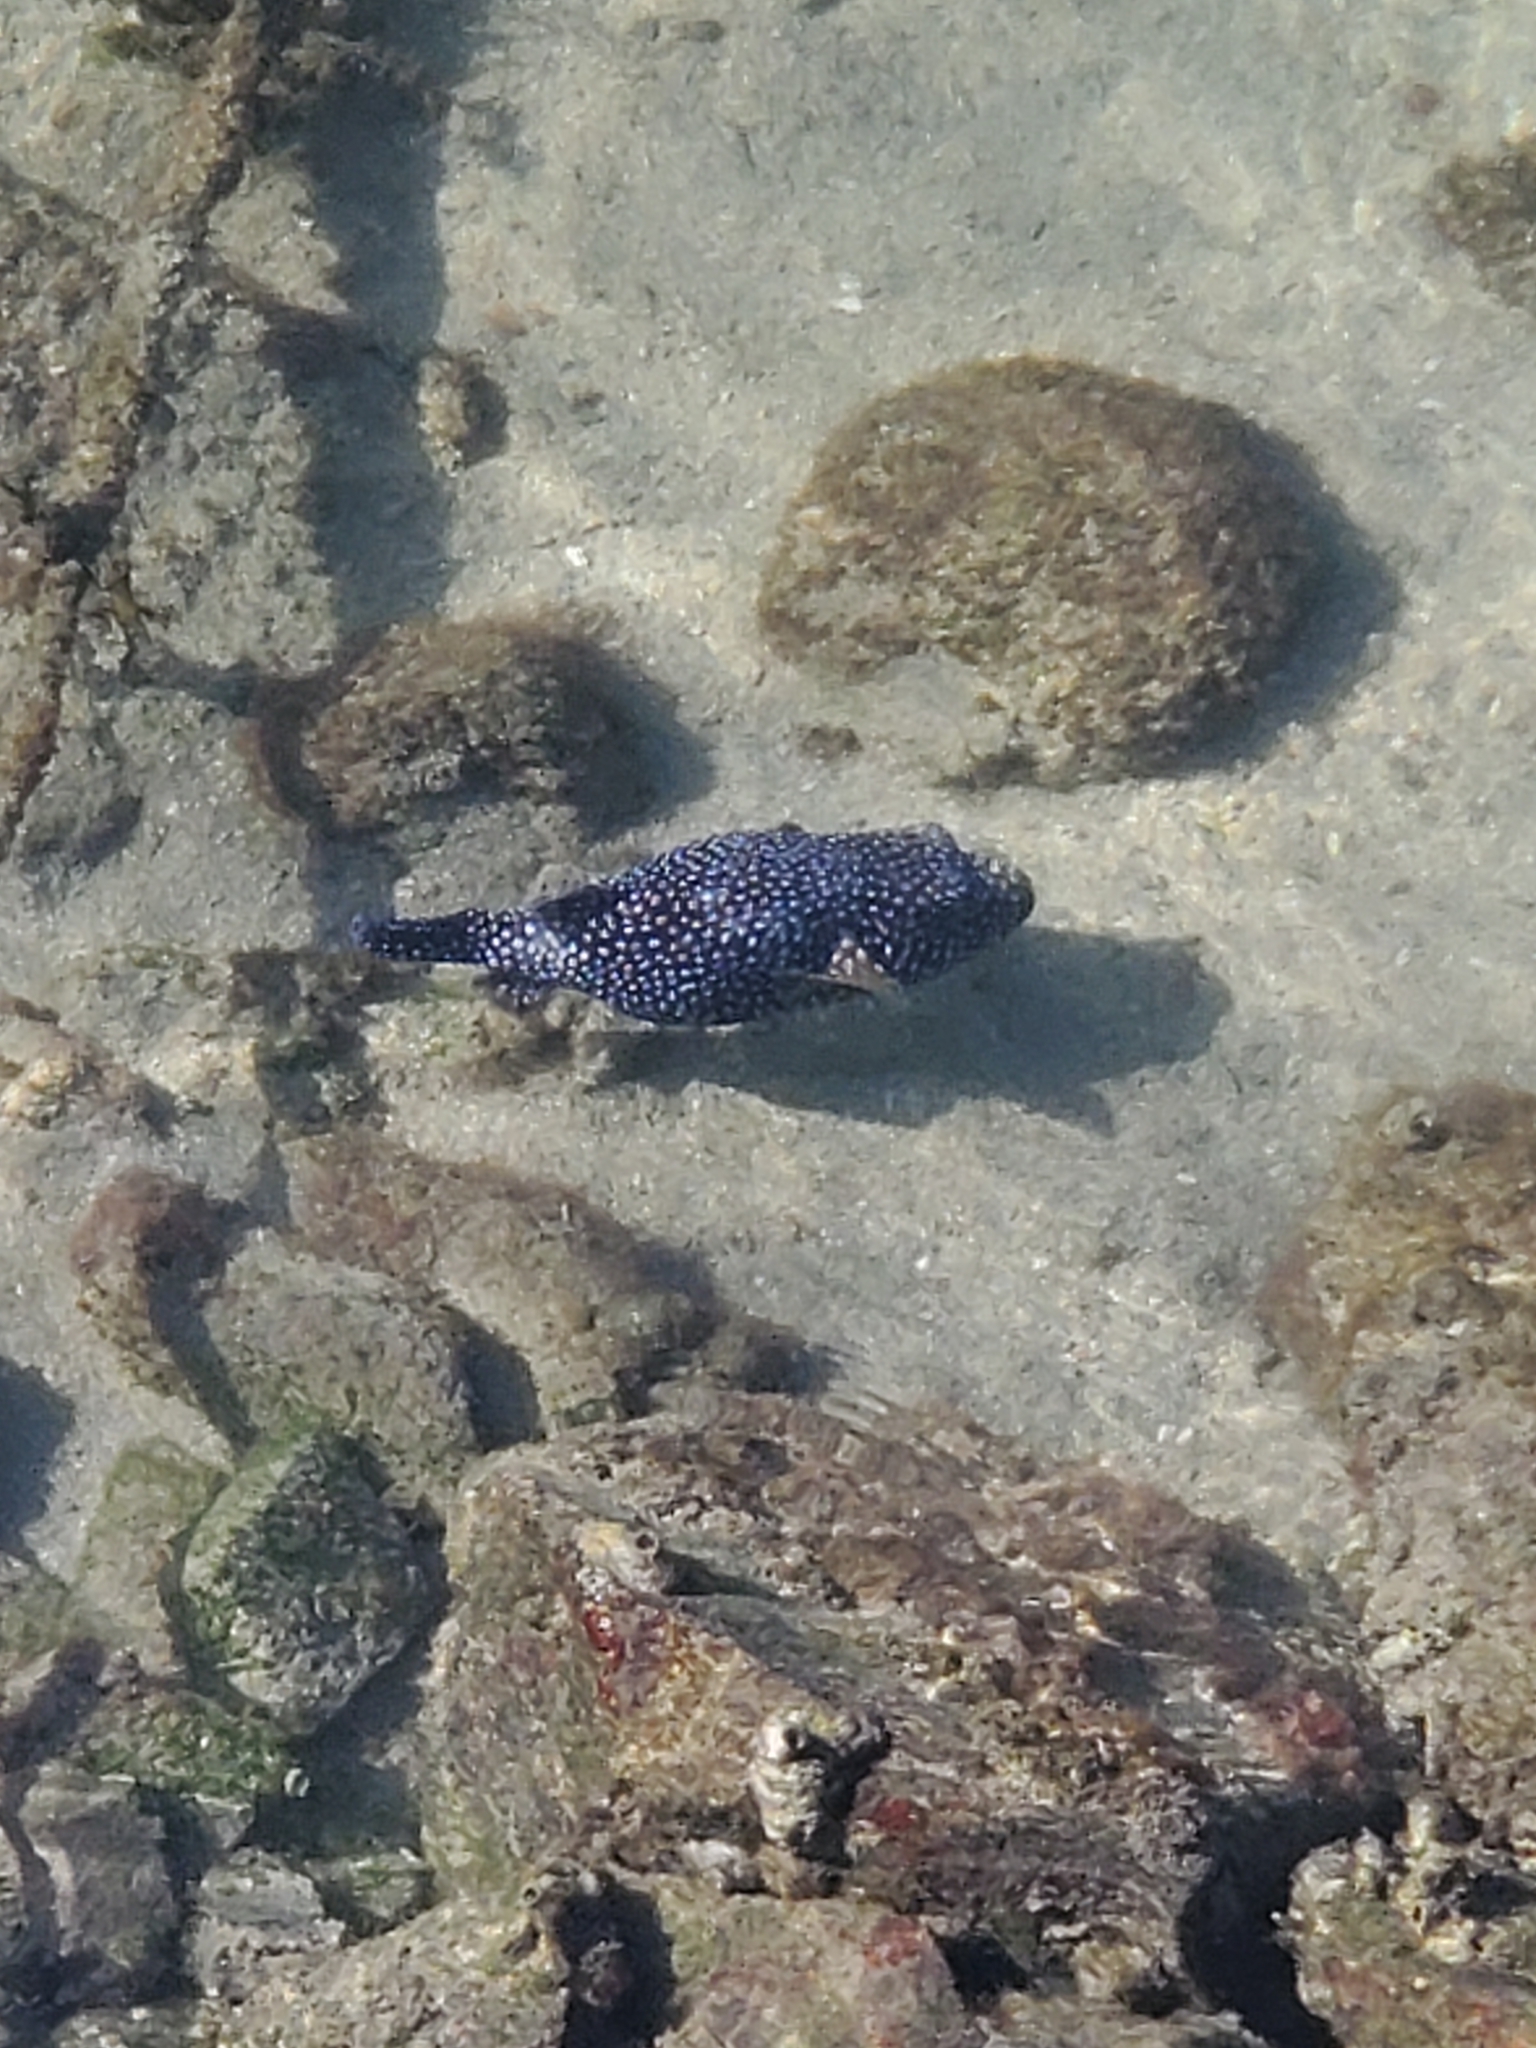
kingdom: Animalia
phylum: Chordata
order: Tetraodontiformes
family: Tetraodontidae
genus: Arothron
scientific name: Arothron meleagris
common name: Guinea-fowl pufferfish
